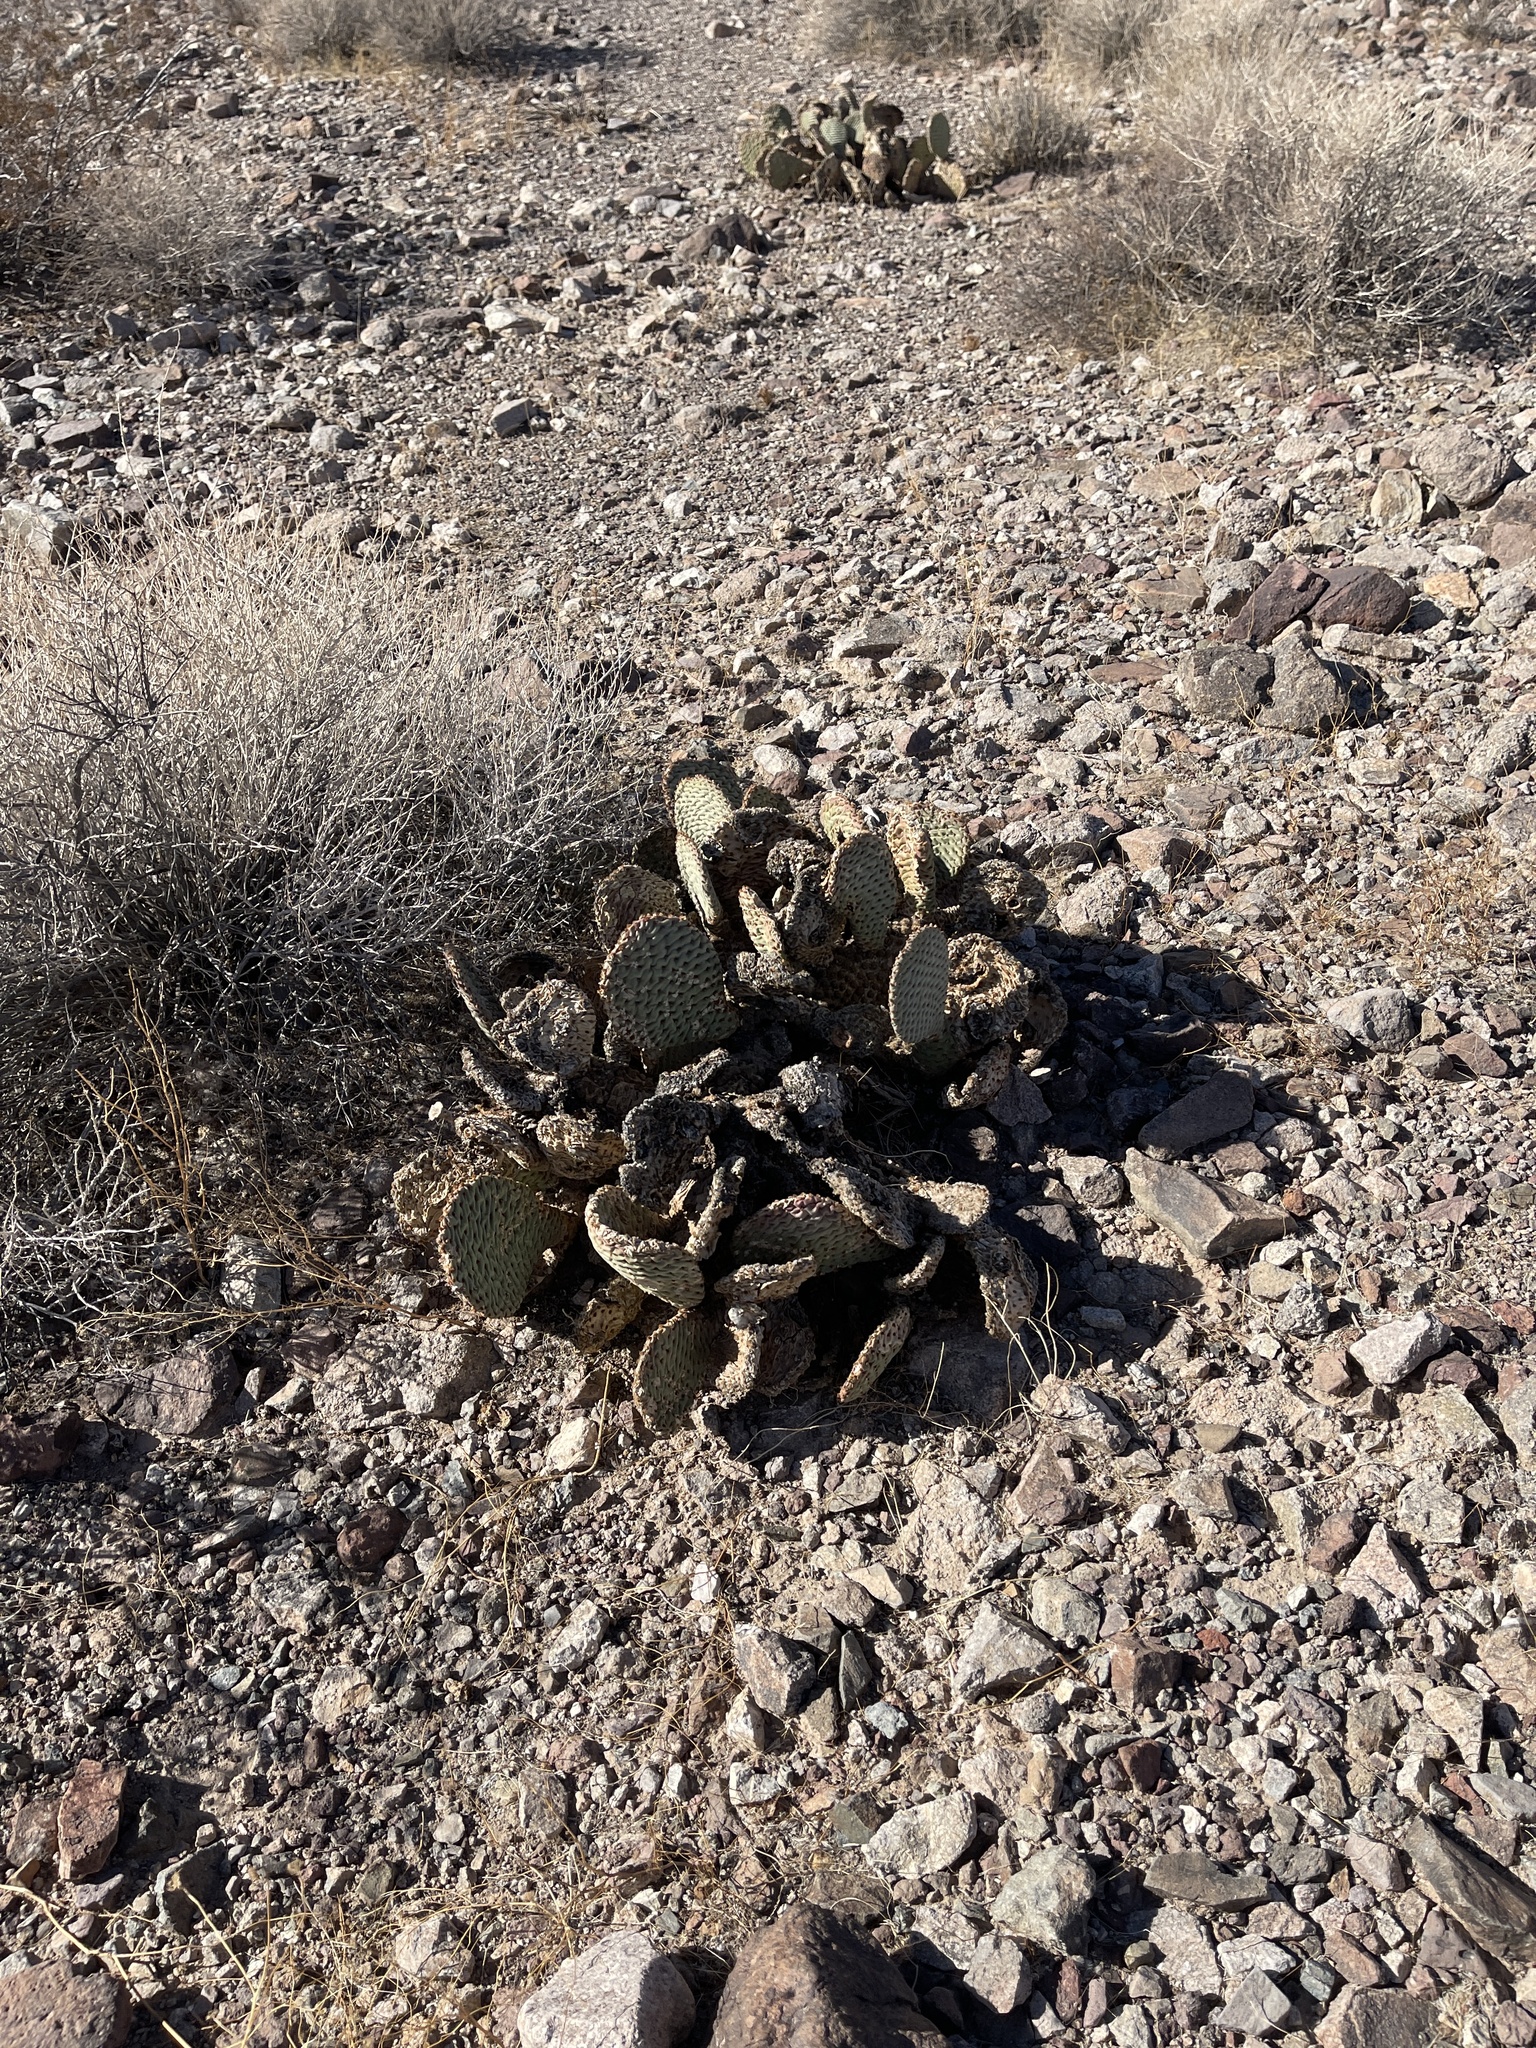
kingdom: Plantae
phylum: Tracheophyta
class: Magnoliopsida
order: Caryophyllales
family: Cactaceae
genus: Opuntia
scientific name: Opuntia basilaris
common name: Beavertail prickly-pear
